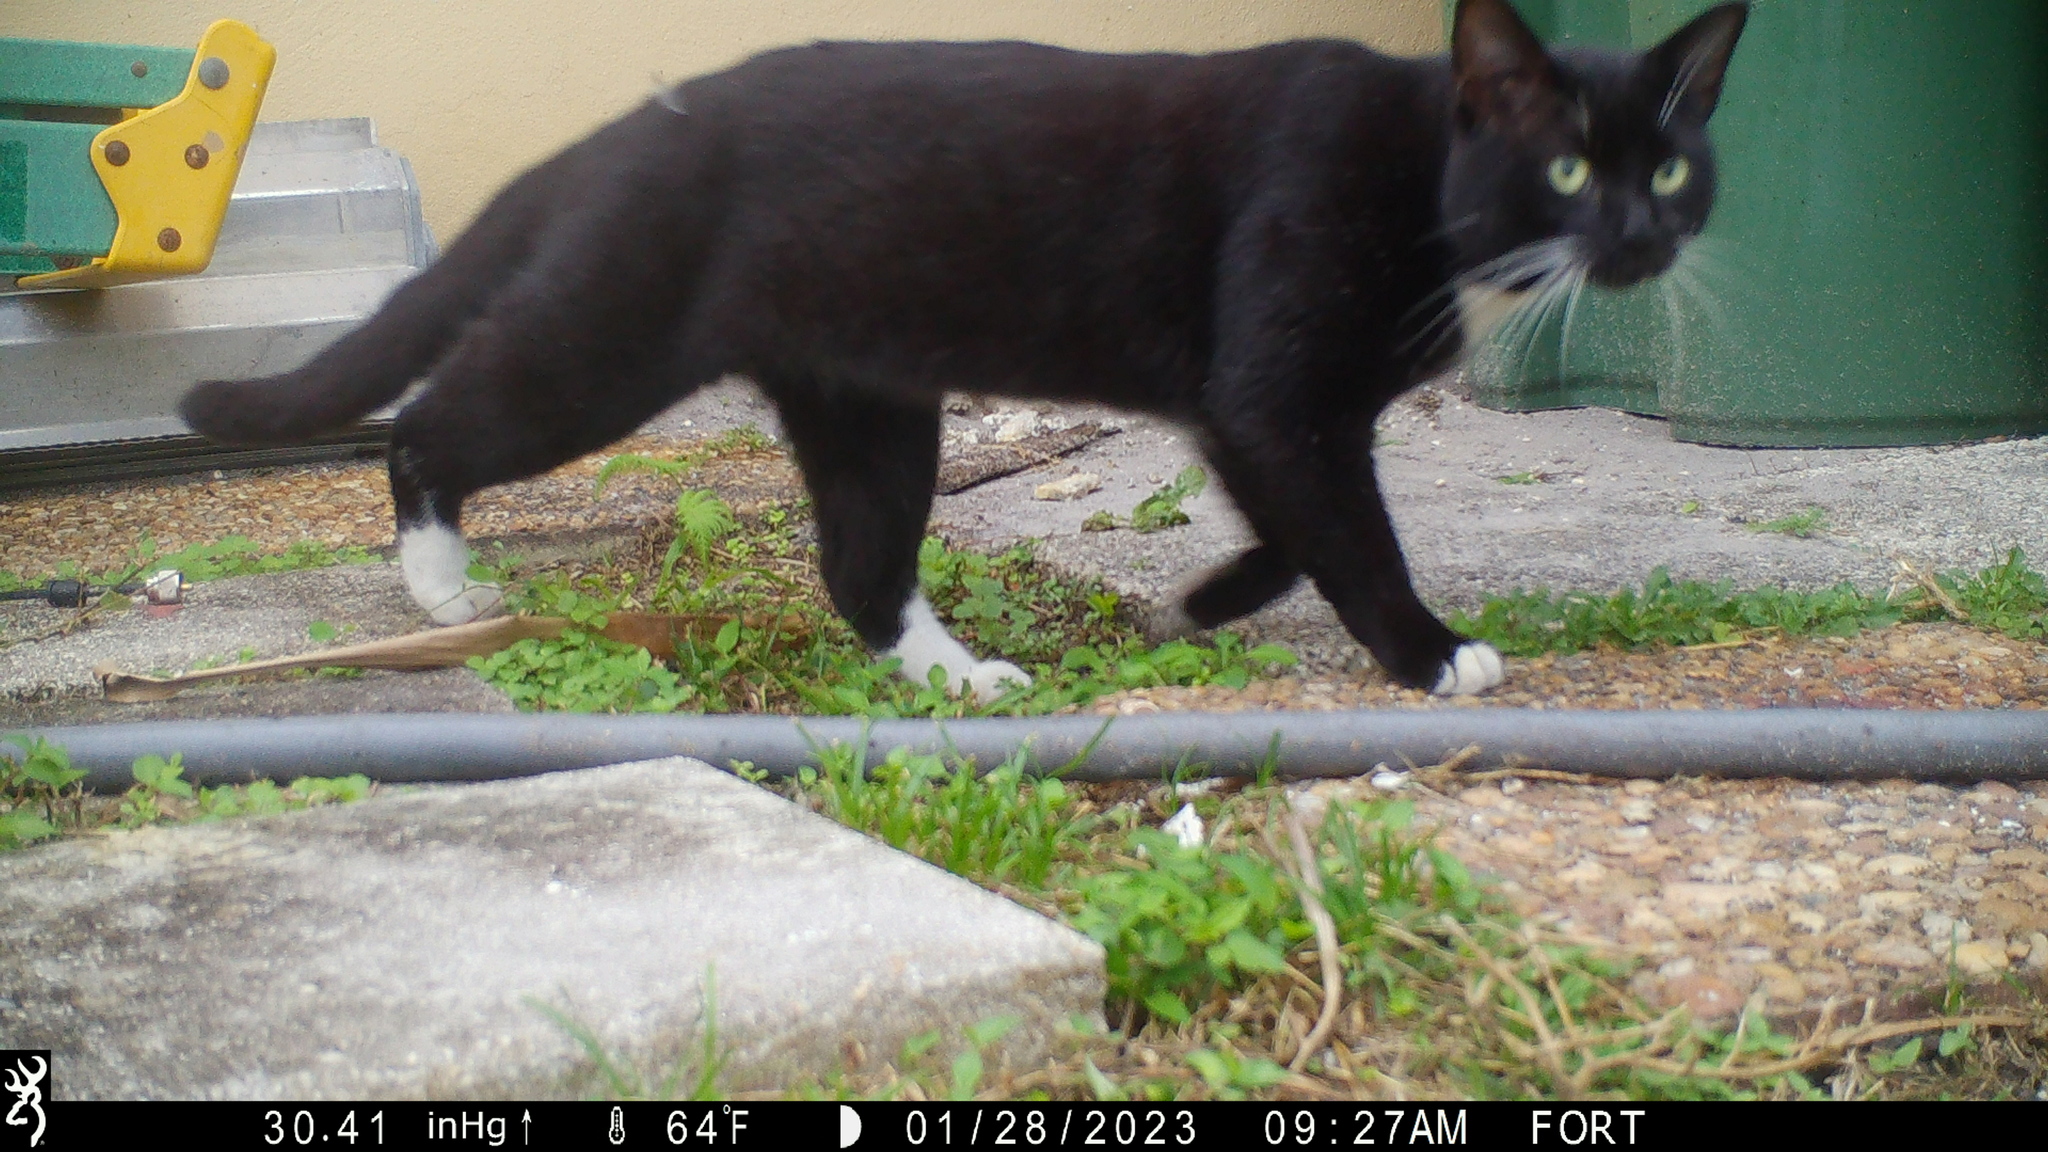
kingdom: Animalia
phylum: Chordata
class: Mammalia
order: Carnivora
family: Felidae
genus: Felis
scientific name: Felis catus
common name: Domestic cat
